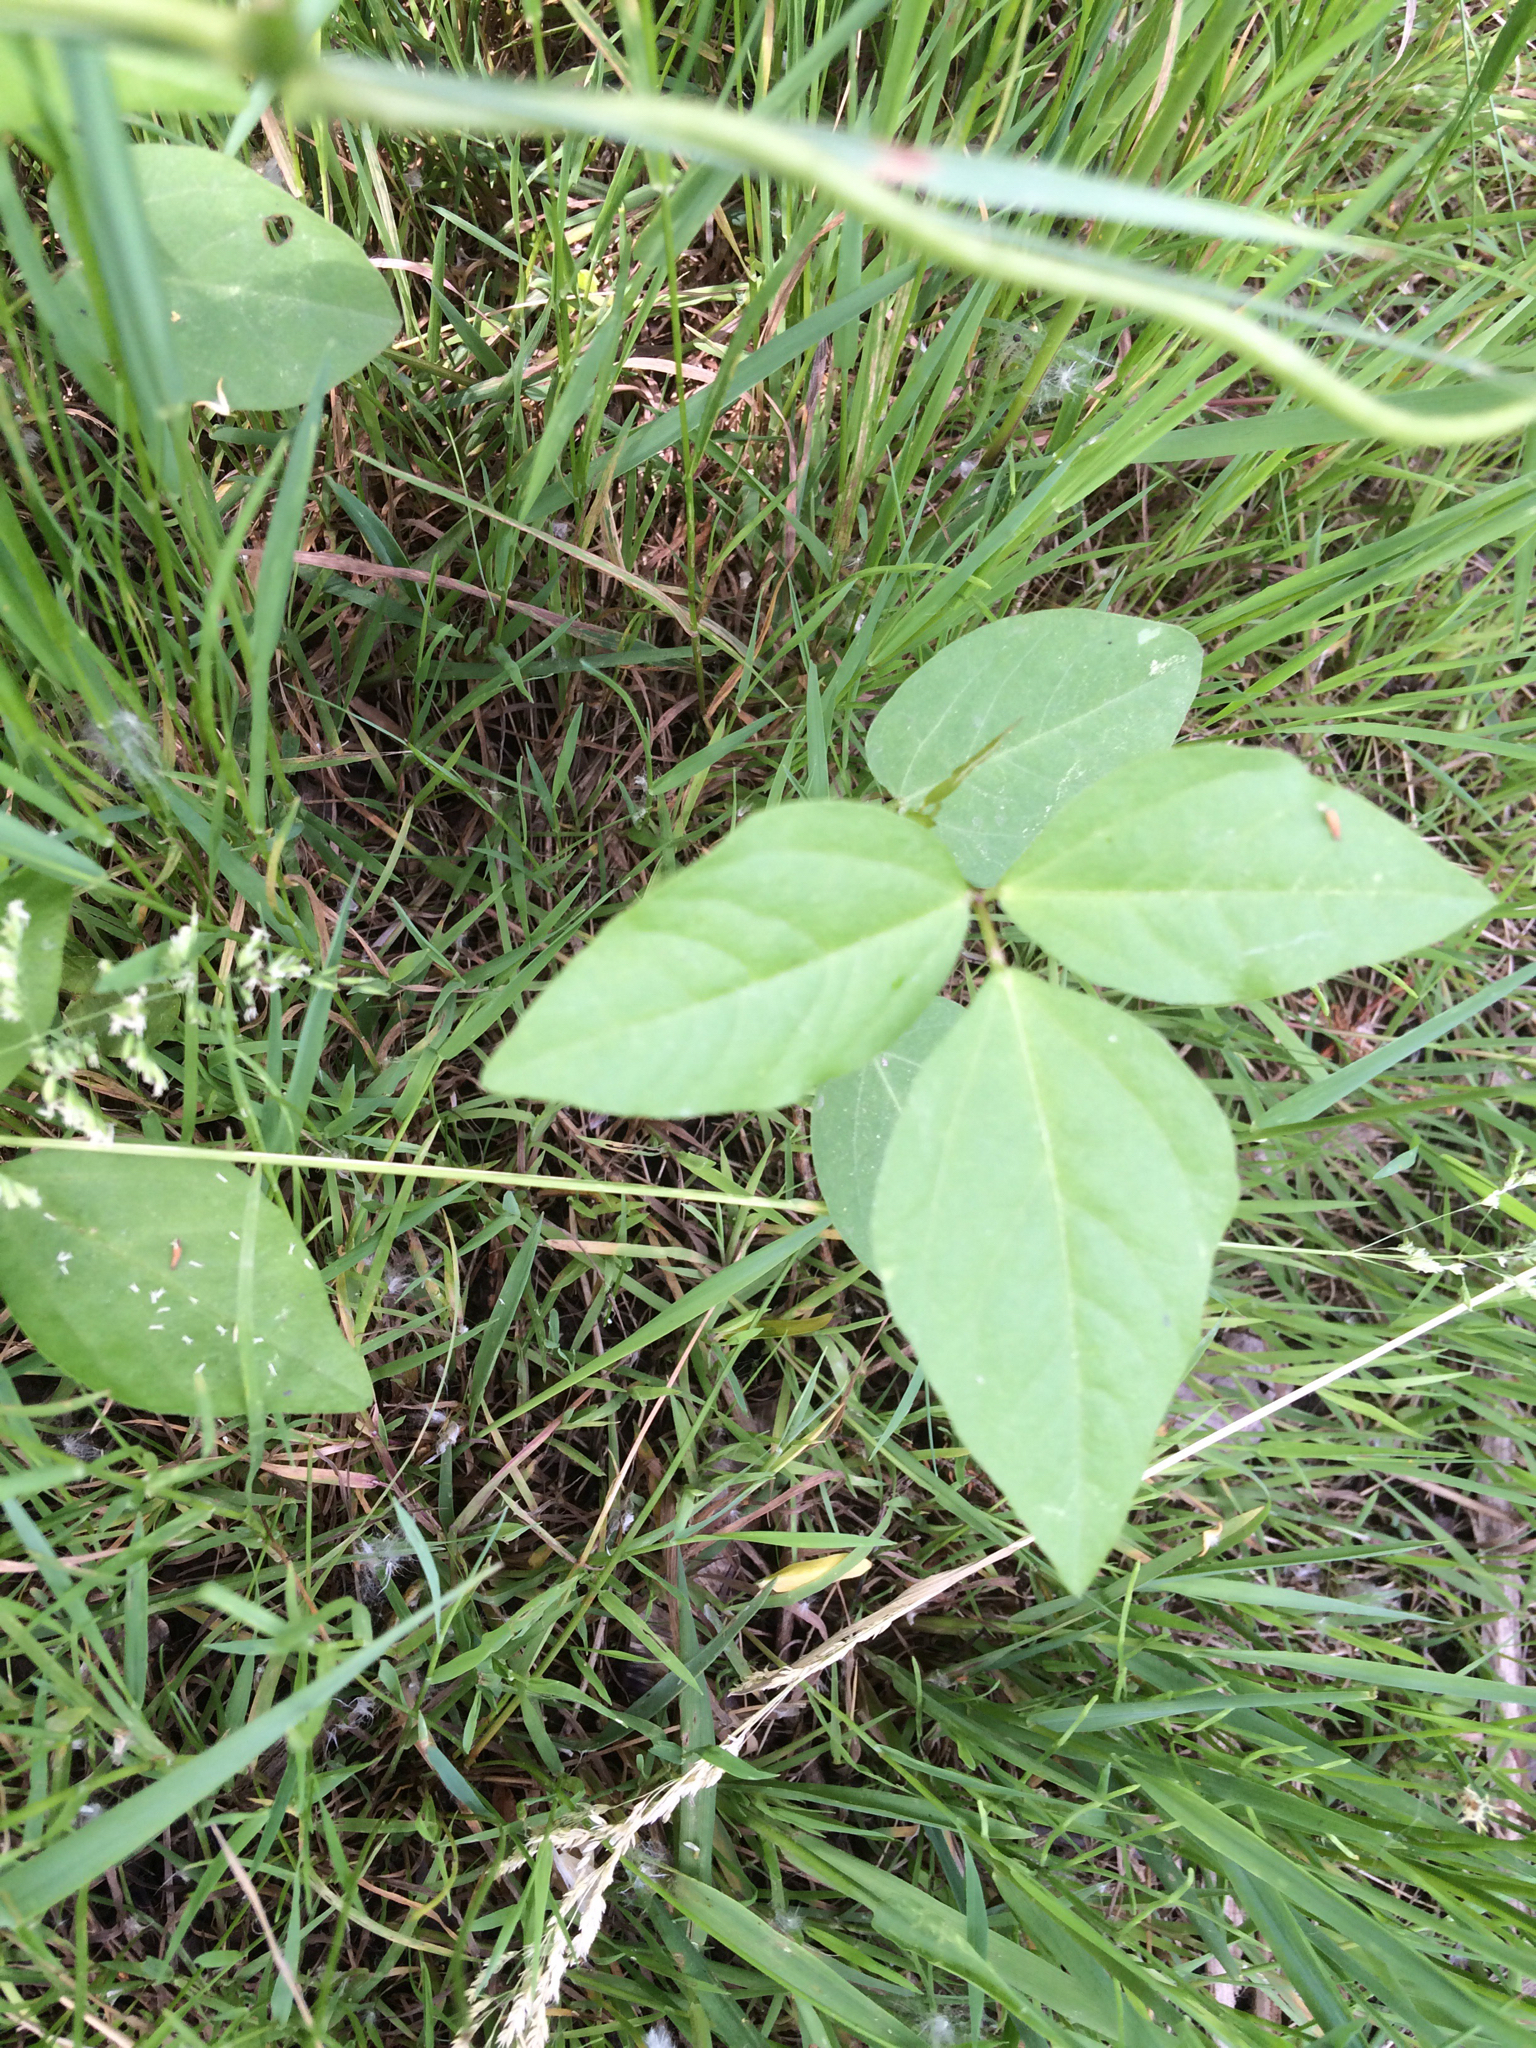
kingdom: Plantae
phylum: Tracheophyta
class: Magnoliopsida
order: Fabales
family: Fabaceae
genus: Amphicarpaea
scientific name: Amphicarpaea bracteata
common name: American hog peanut
